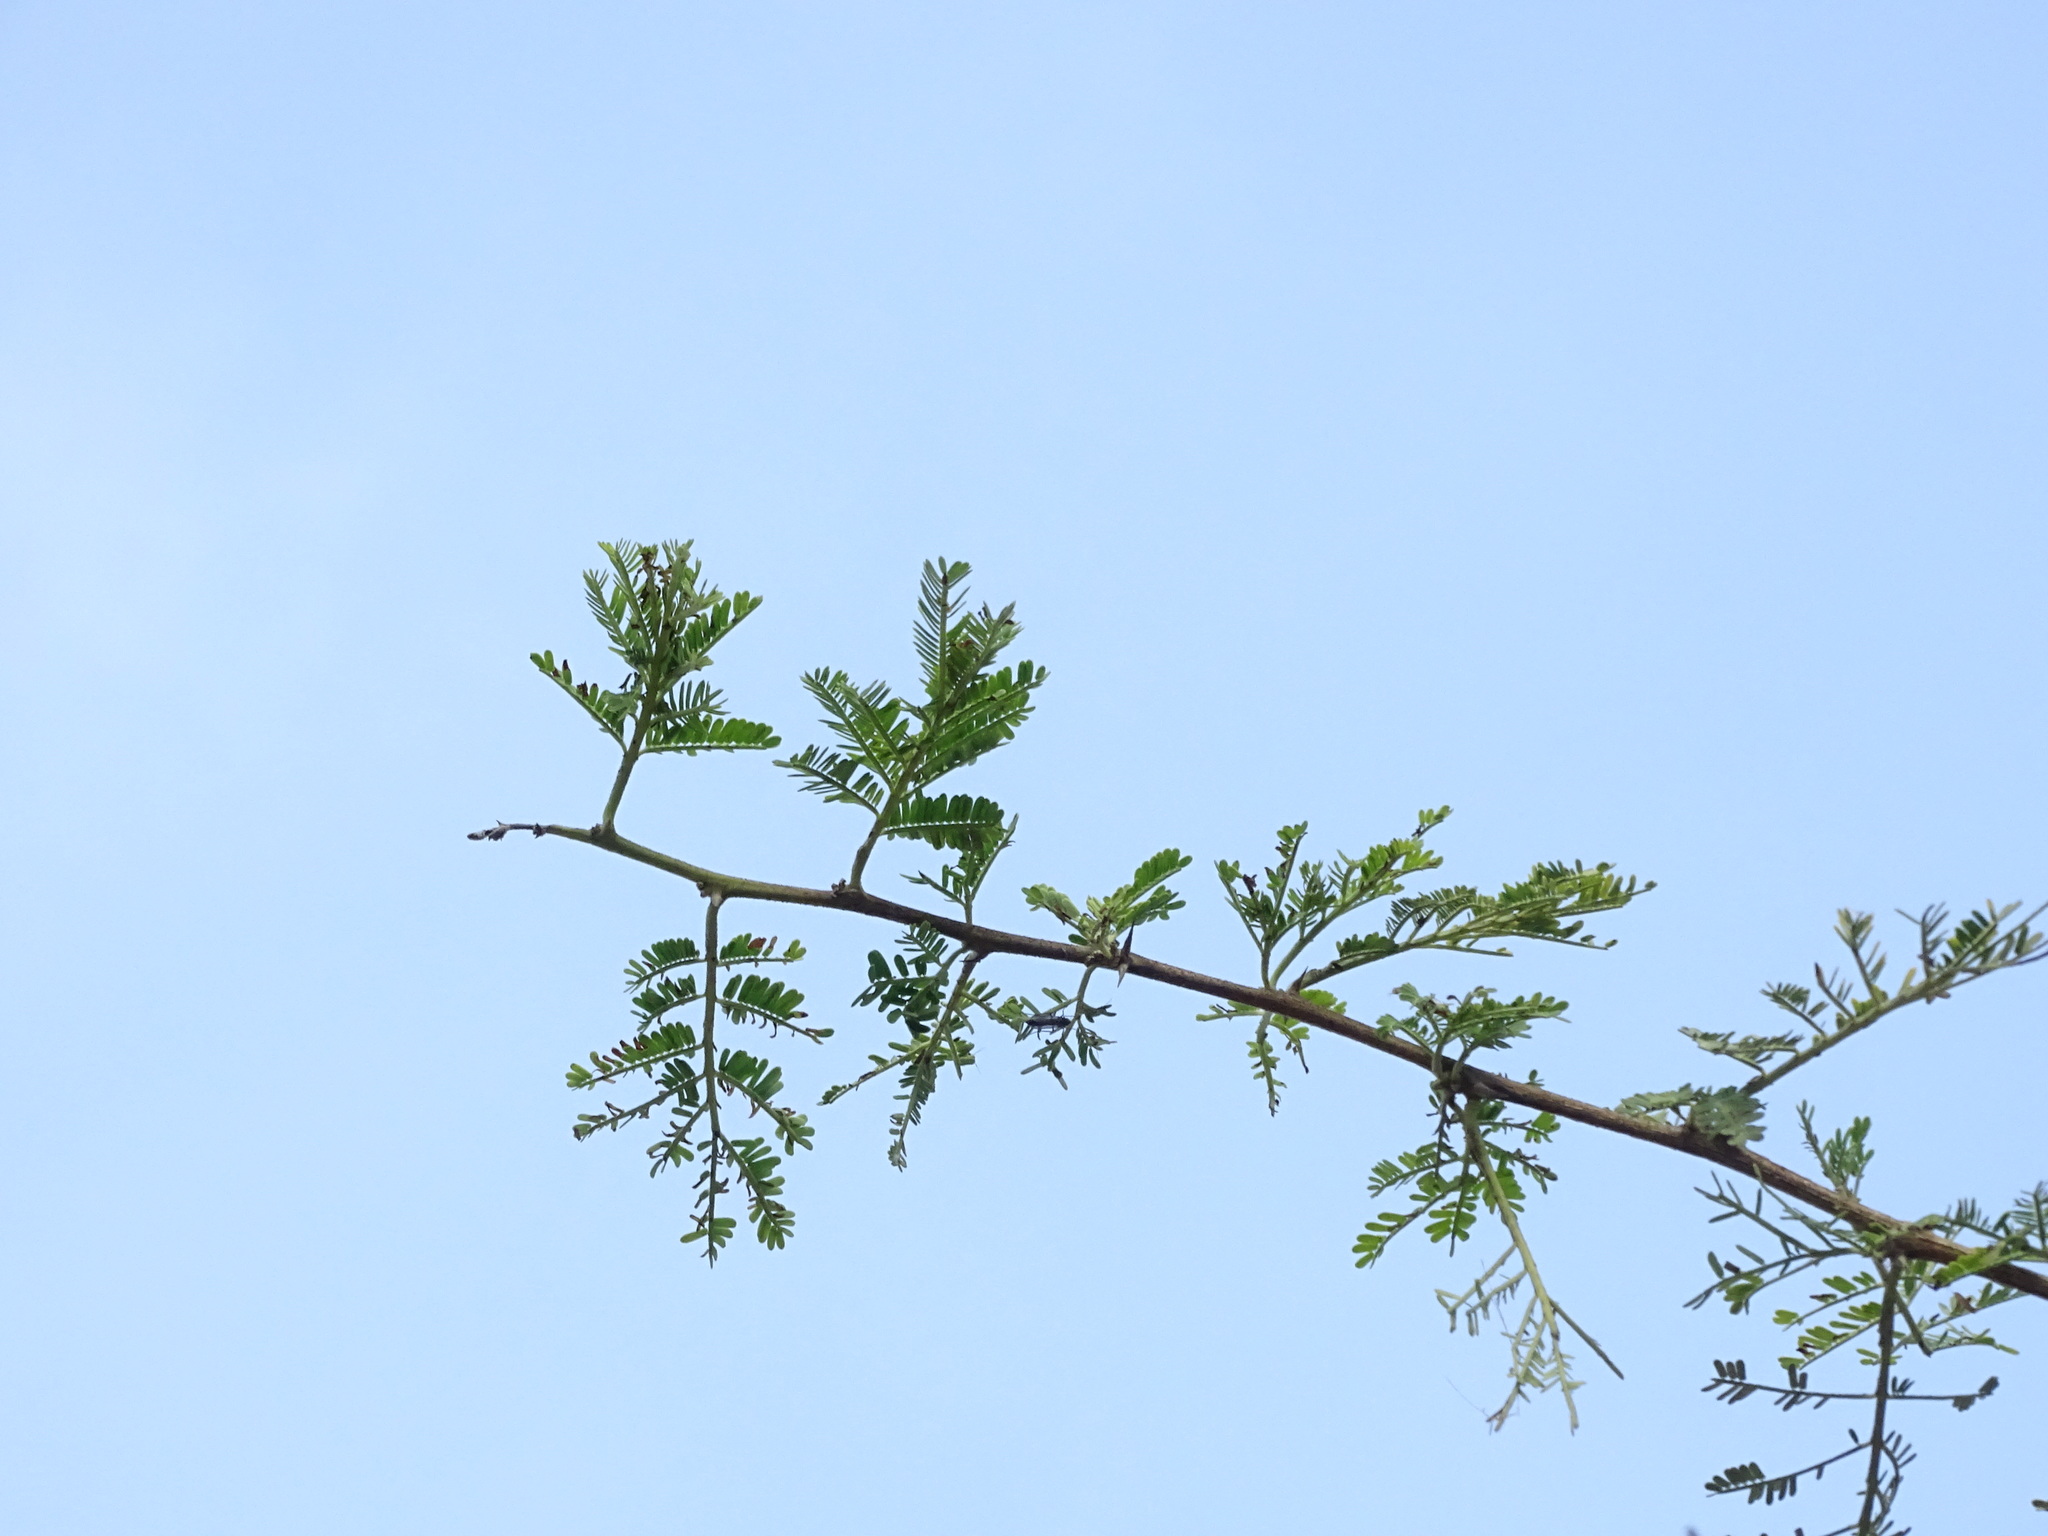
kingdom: Plantae
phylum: Tracheophyta
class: Magnoliopsida
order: Fabales
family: Fabaceae
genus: Vachellia
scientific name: Vachellia nilotica
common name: Arabic gumtree
